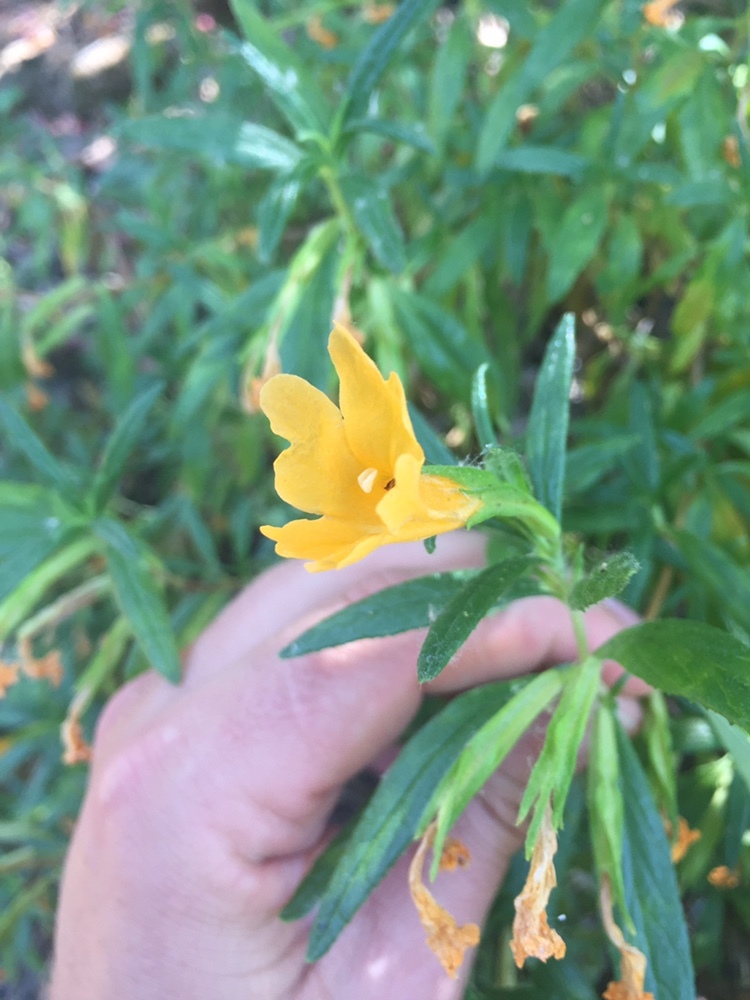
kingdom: Plantae
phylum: Tracheophyta
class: Magnoliopsida
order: Lamiales
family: Phrymaceae
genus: Diplacus
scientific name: Diplacus aurantiacus
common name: Bush monkey-flower
